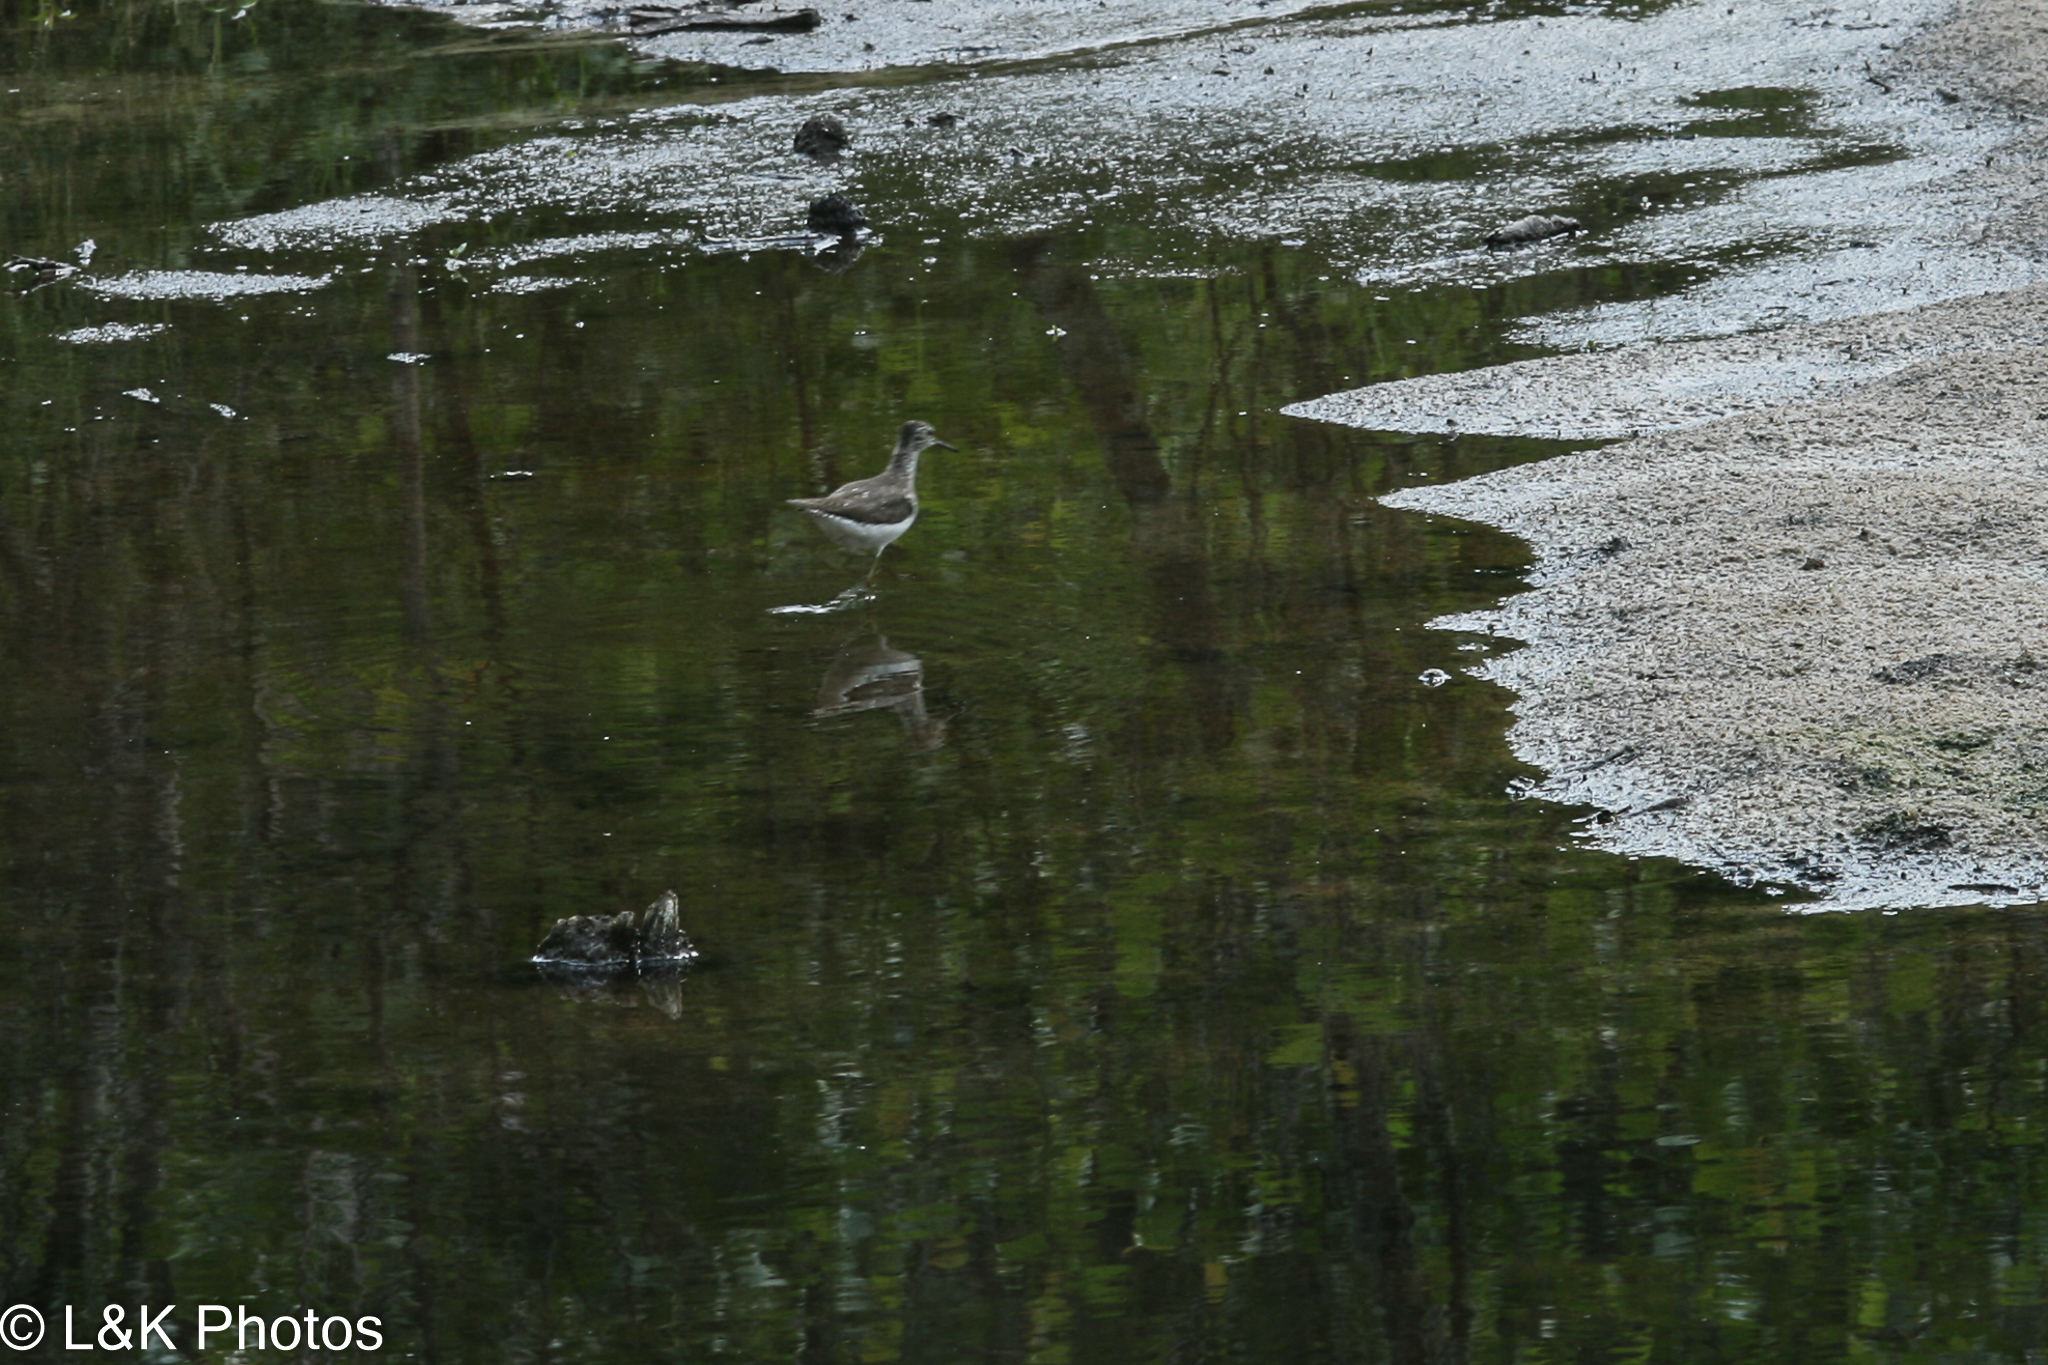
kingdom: Animalia
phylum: Chordata
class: Aves
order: Charadriiformes
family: Scolopacidae
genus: Tringa
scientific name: Tringa solitaria
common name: Solitary sandpiper
